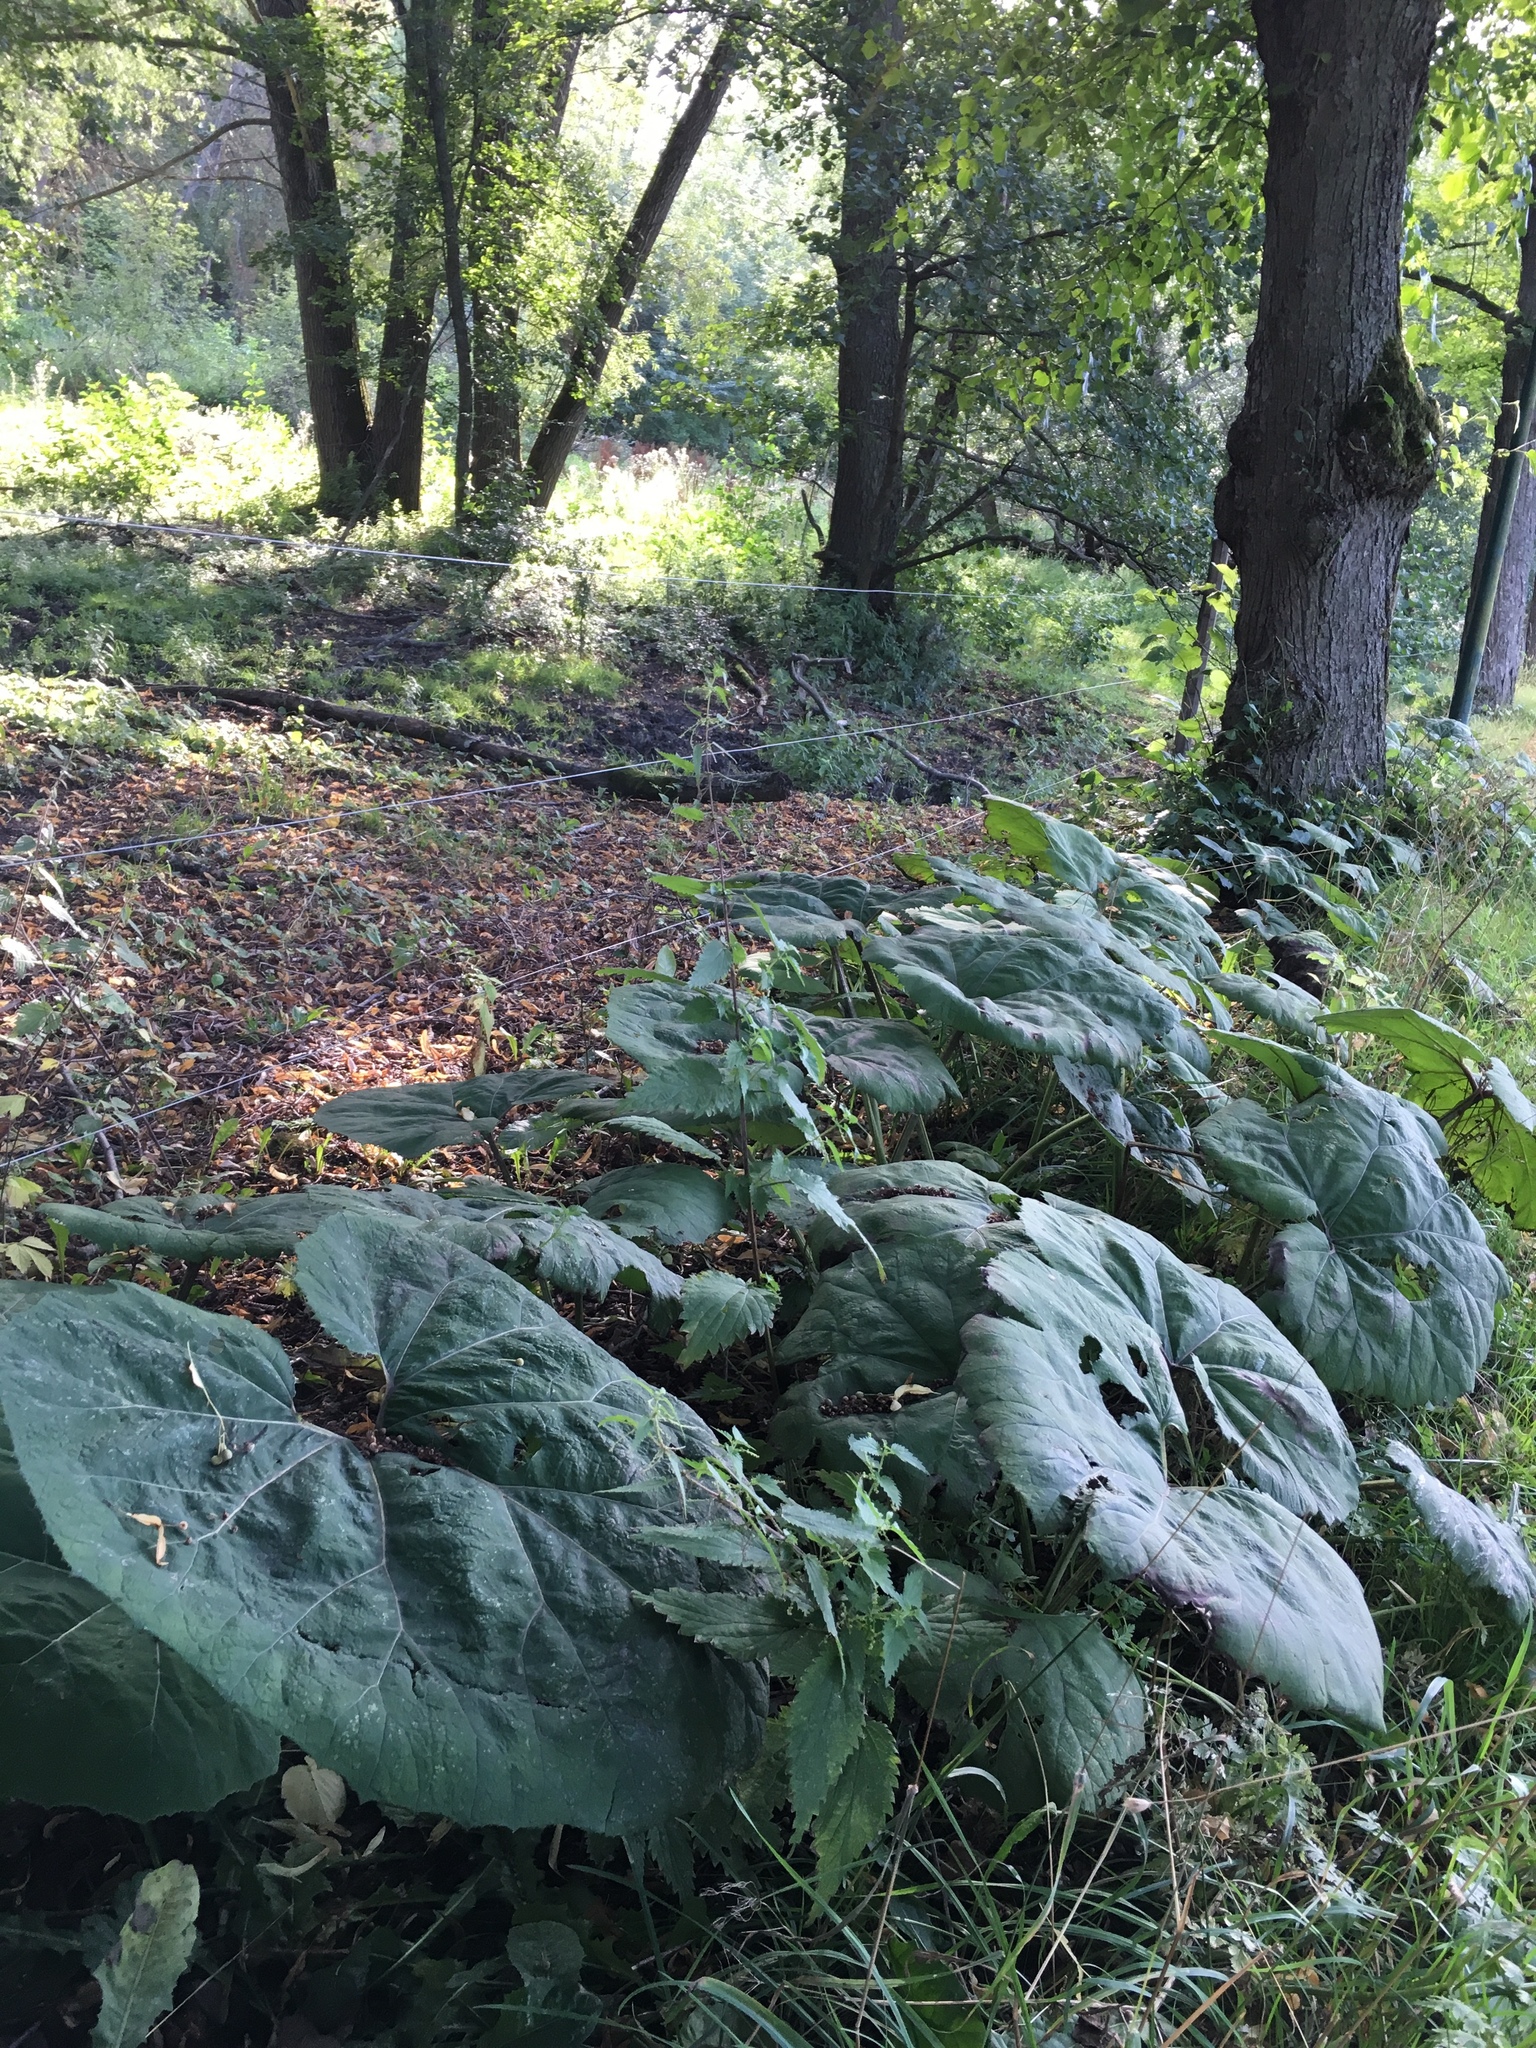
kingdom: Plantae
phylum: Tracheophyta
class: Magnoliopsida
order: Rosales
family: Urticaceae
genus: Urtica
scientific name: Urtica dioica
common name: Common nettle
